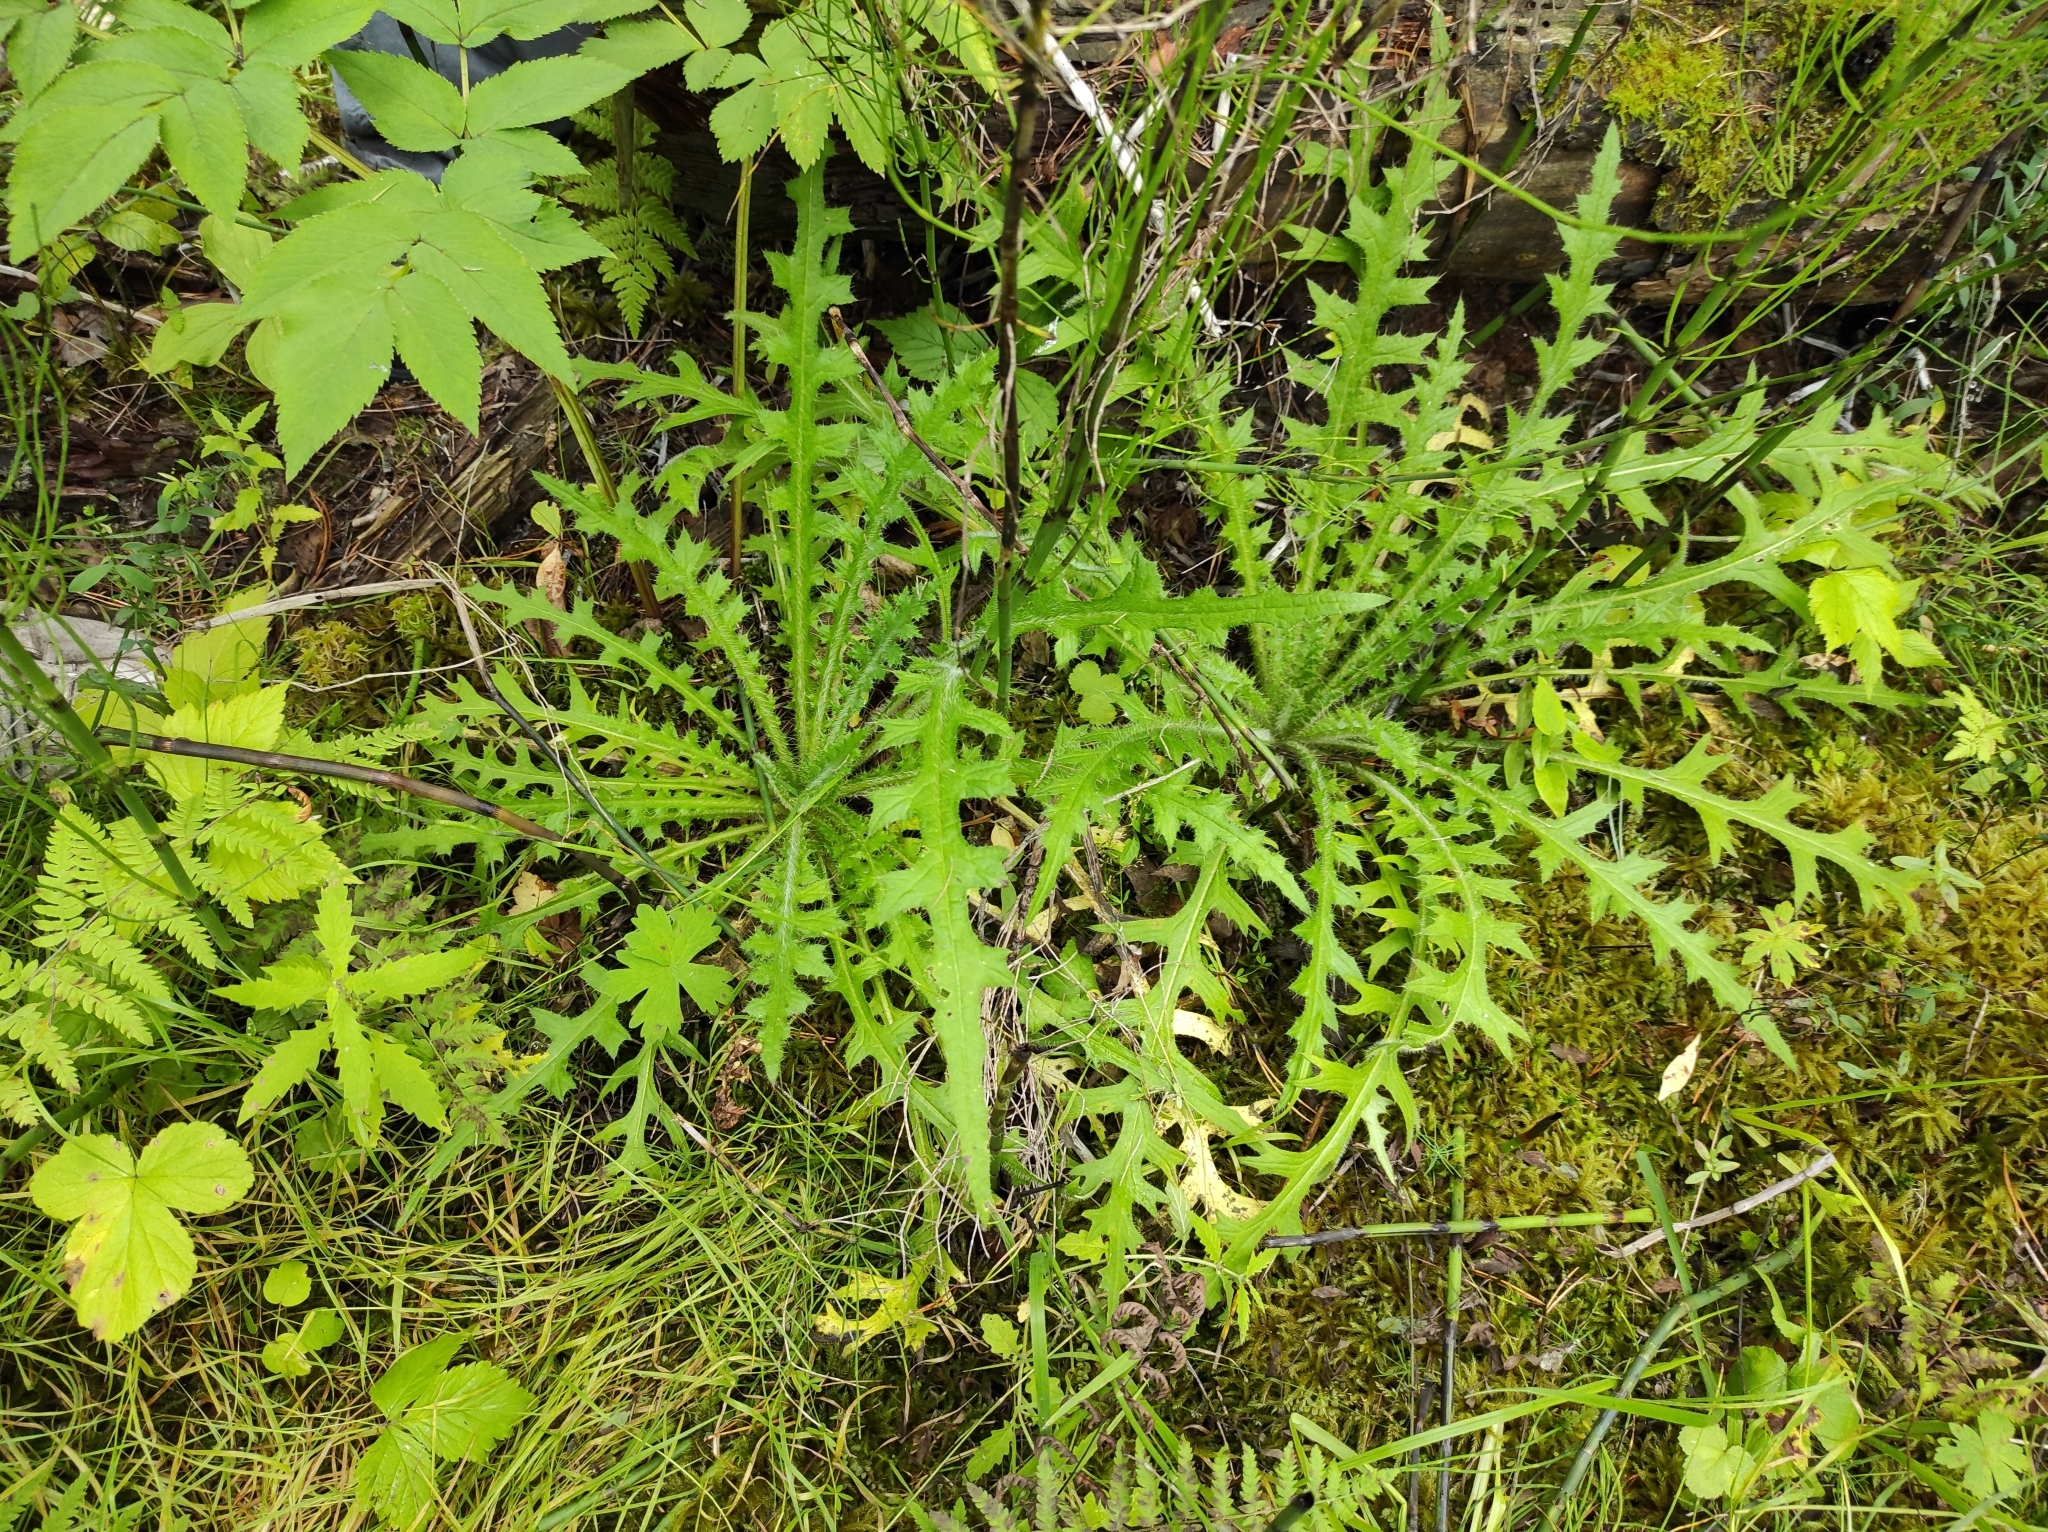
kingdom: Plantae
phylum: Tracheophyta
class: Magnoliopsida
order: Asterales
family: Asteraceae
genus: Cirsium
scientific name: Cirsium palustre
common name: Marsh thistle
